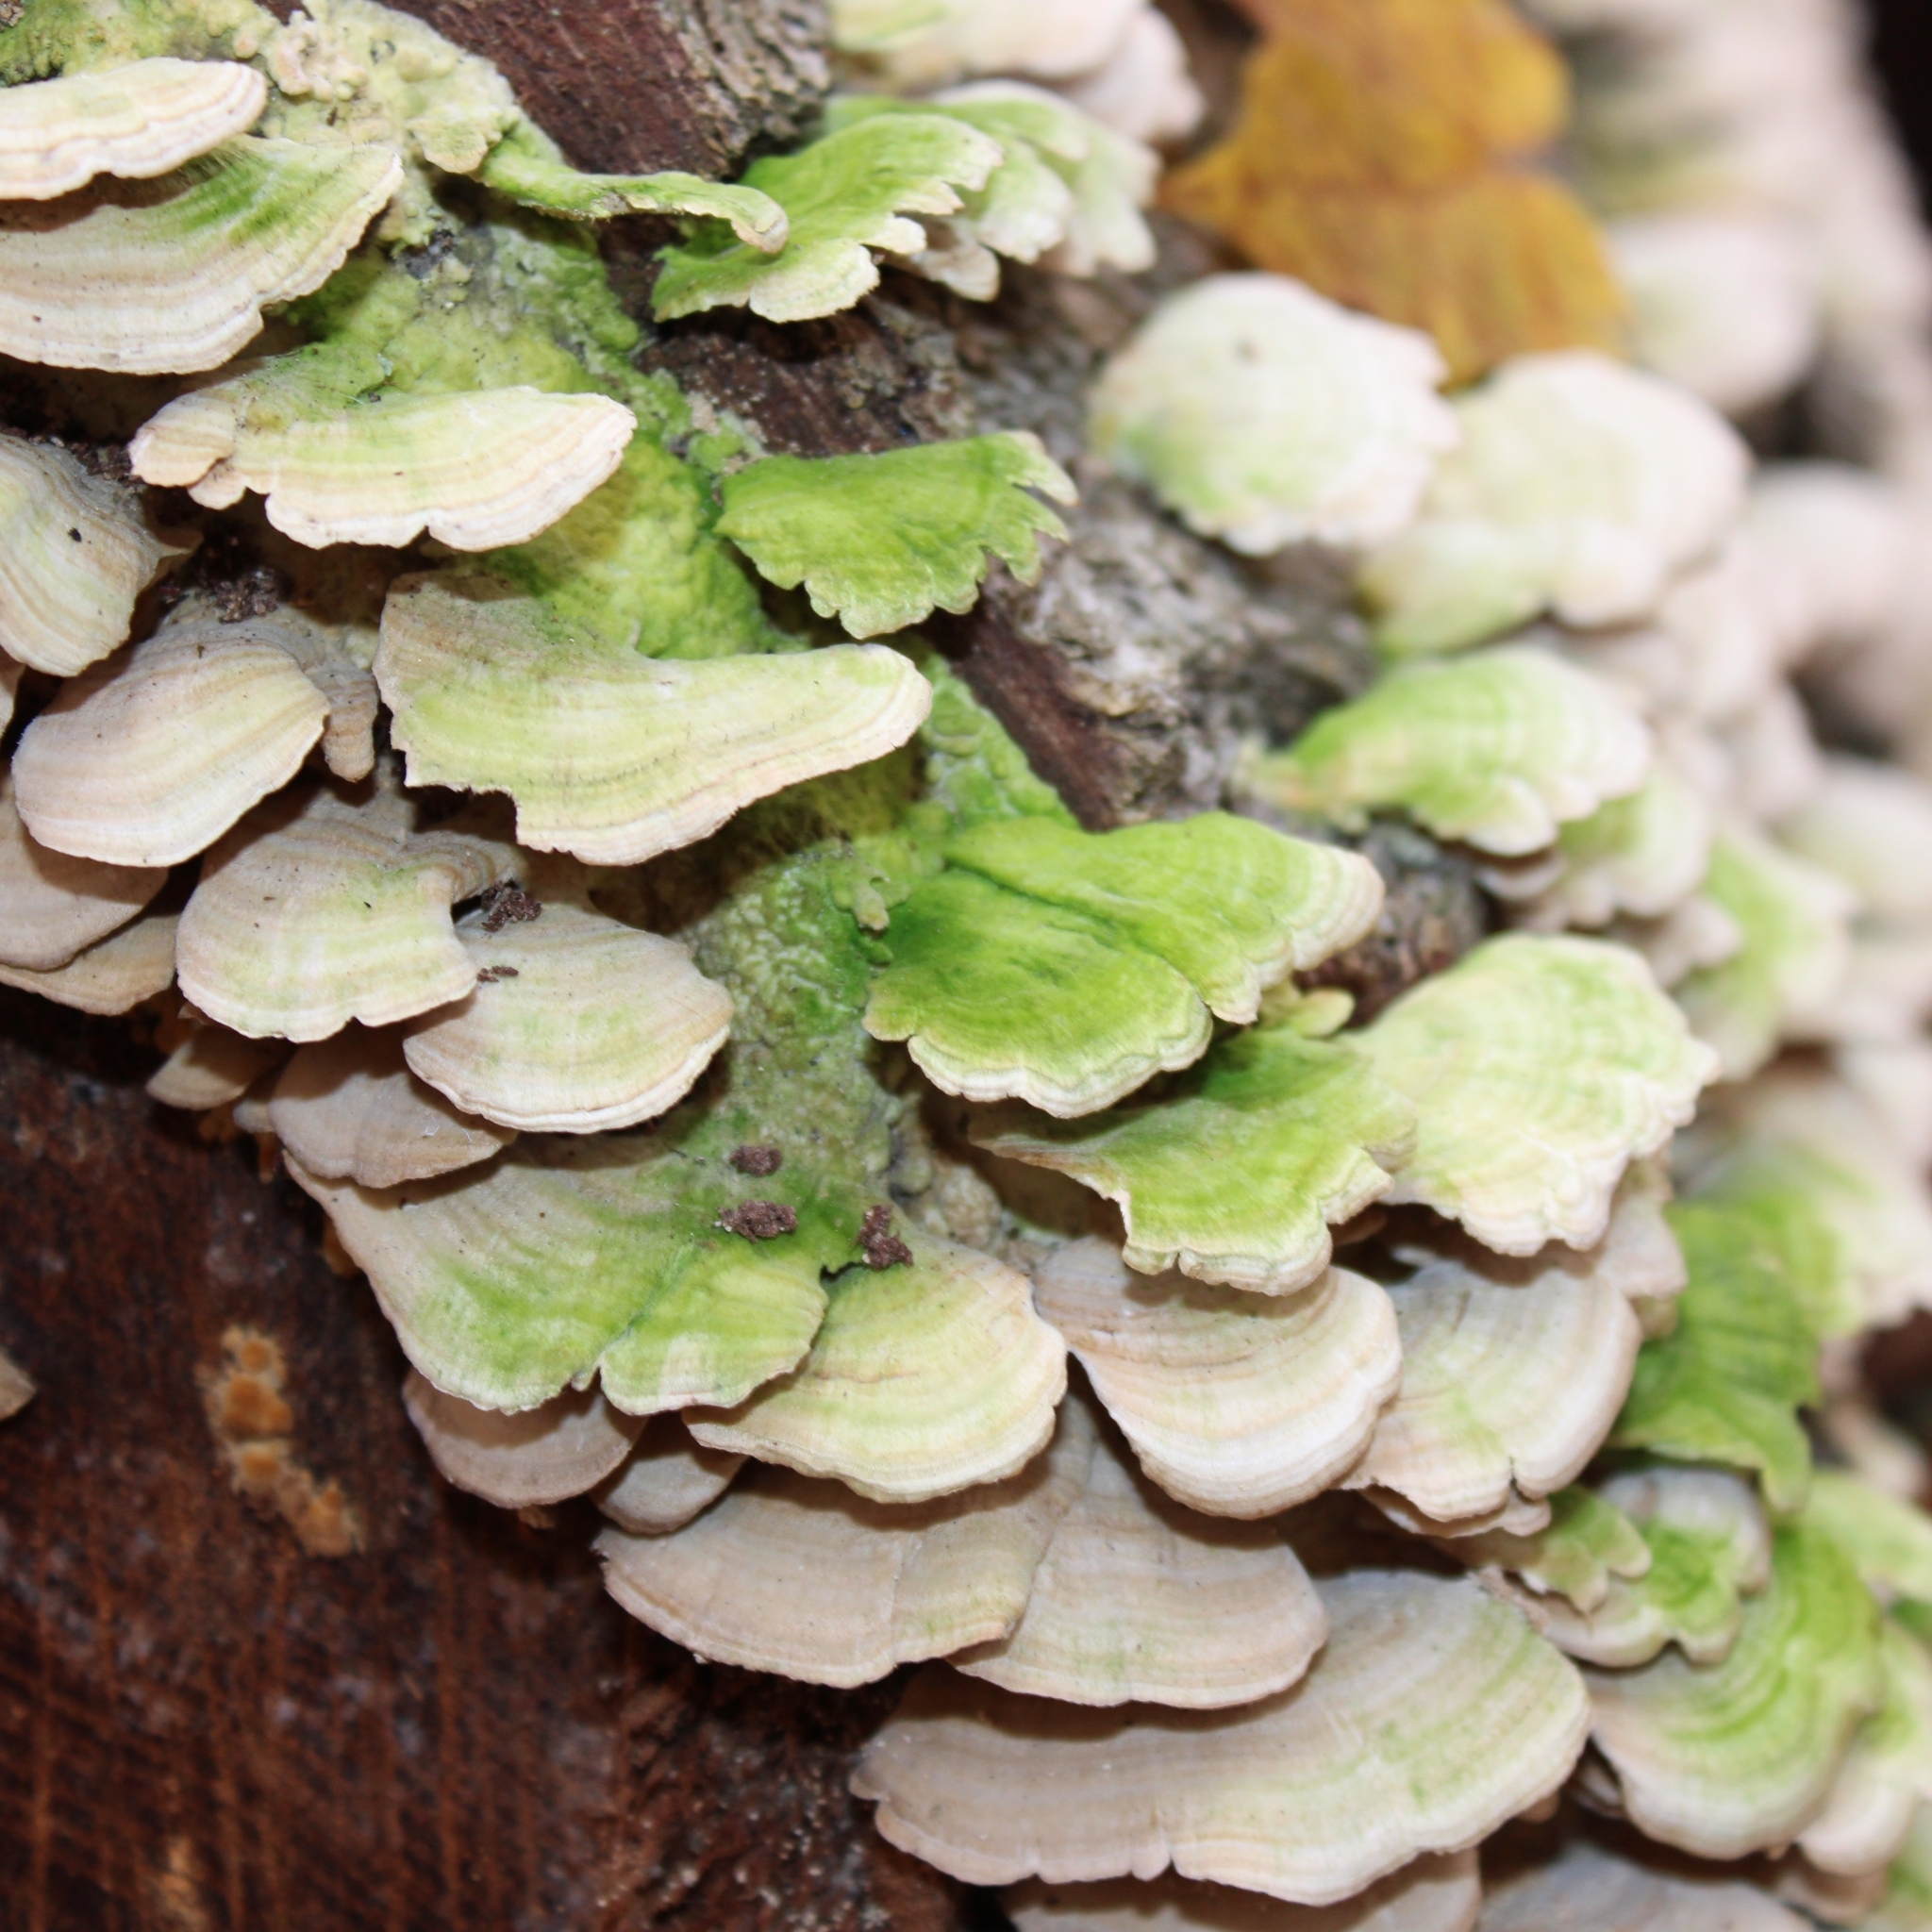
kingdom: Fungi
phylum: Basidiomycota
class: Agaricomycetes
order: Hymenochaetales
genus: Trichaptum
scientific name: Trichaptum biforme
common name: Violet-toothed polypore
